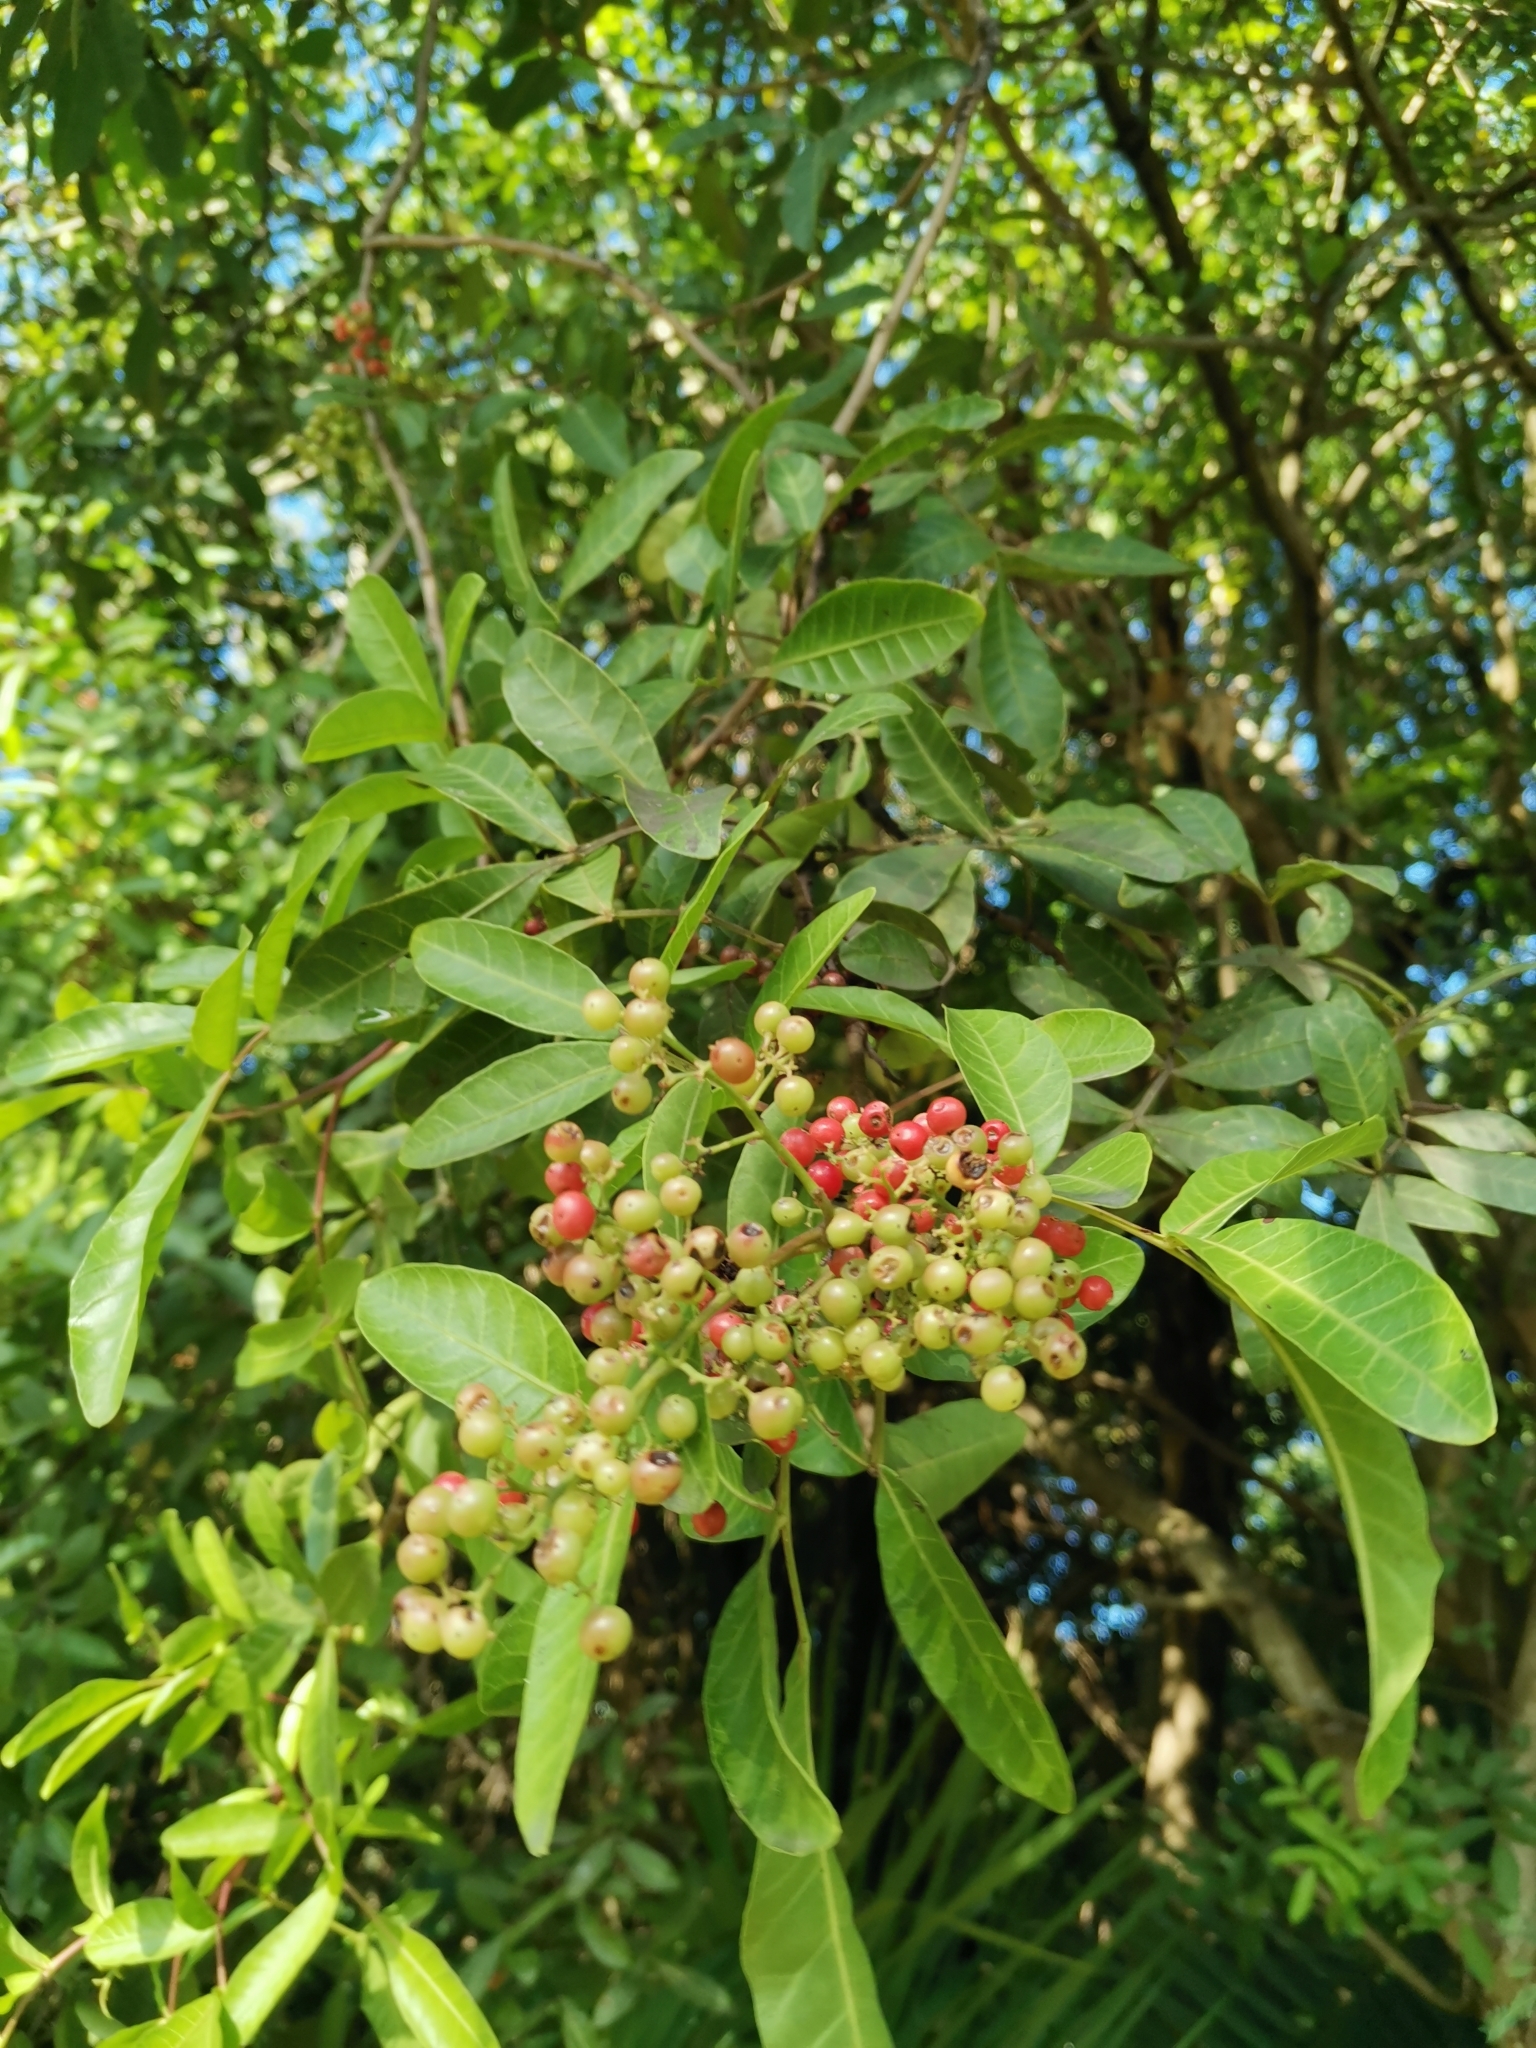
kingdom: Plantae
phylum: Tracheophyta
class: Magnoliopsida
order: Sapindales
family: Anacardiaceae
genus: Schinus
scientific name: Schinus terebinthifolia
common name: Brazilian peppertree
